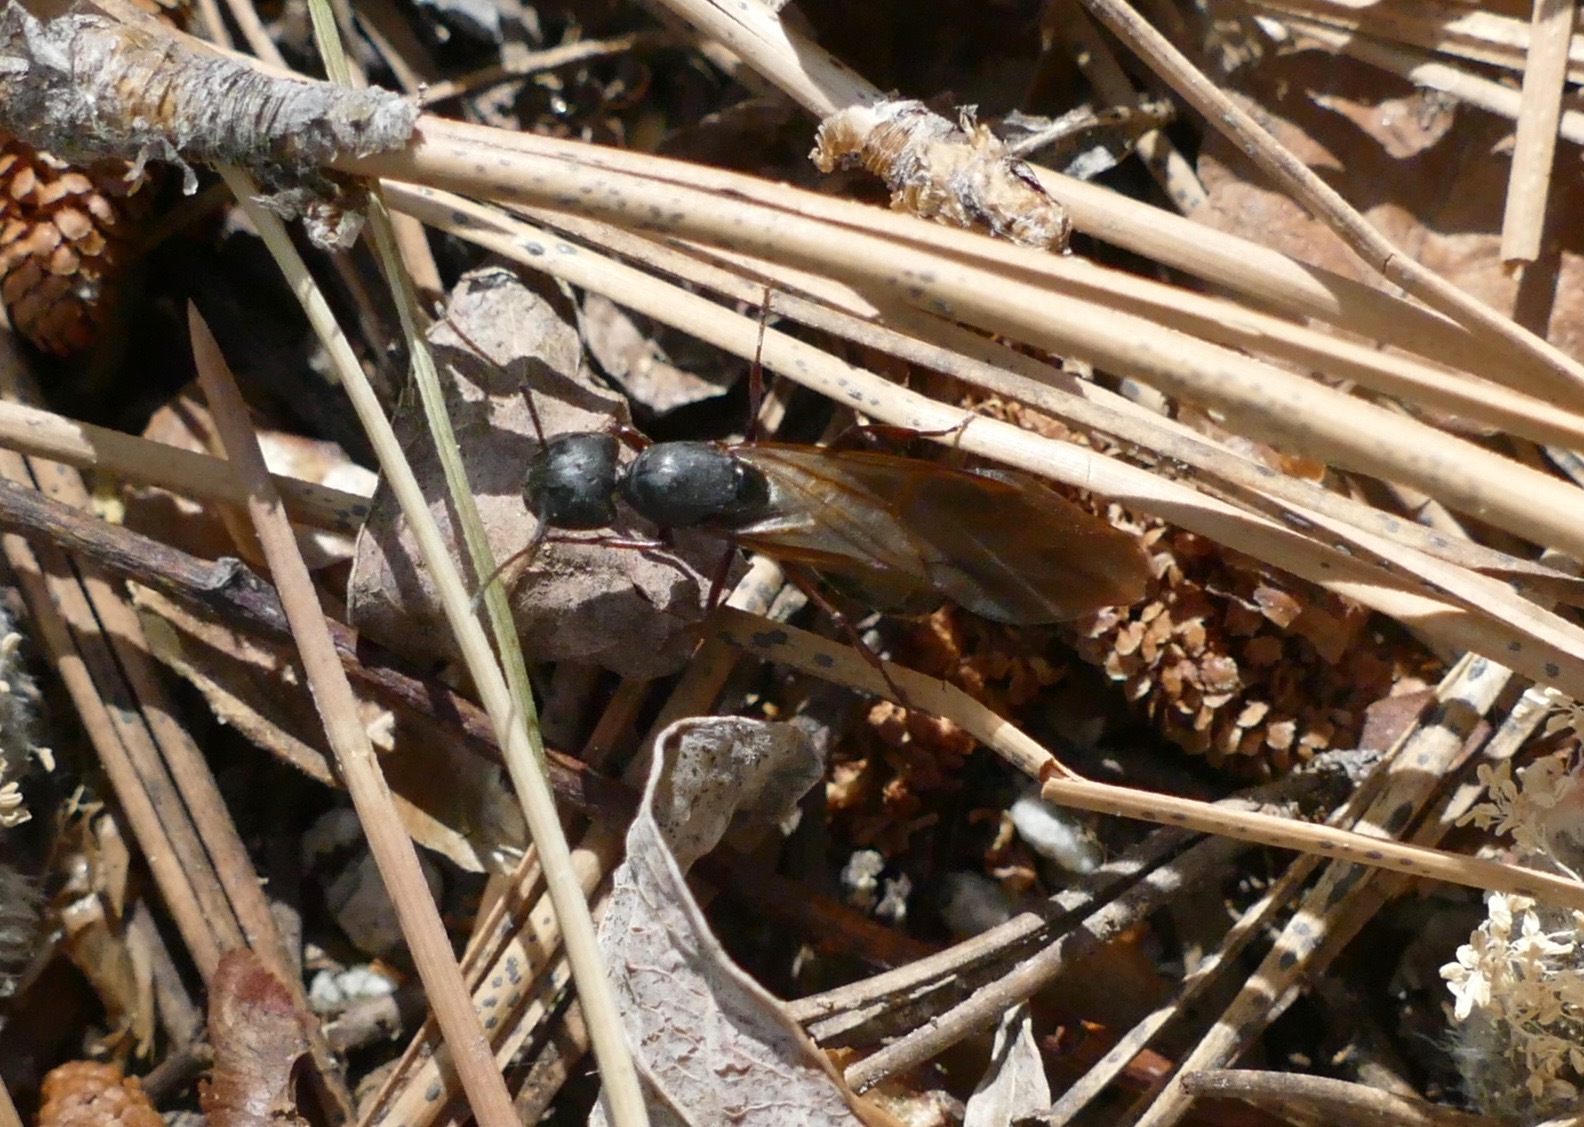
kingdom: Animalia
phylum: Arthropoda
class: Insecta
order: Hymenoptera
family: Formicidae
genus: Camponotus
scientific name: Camponotus modoc
